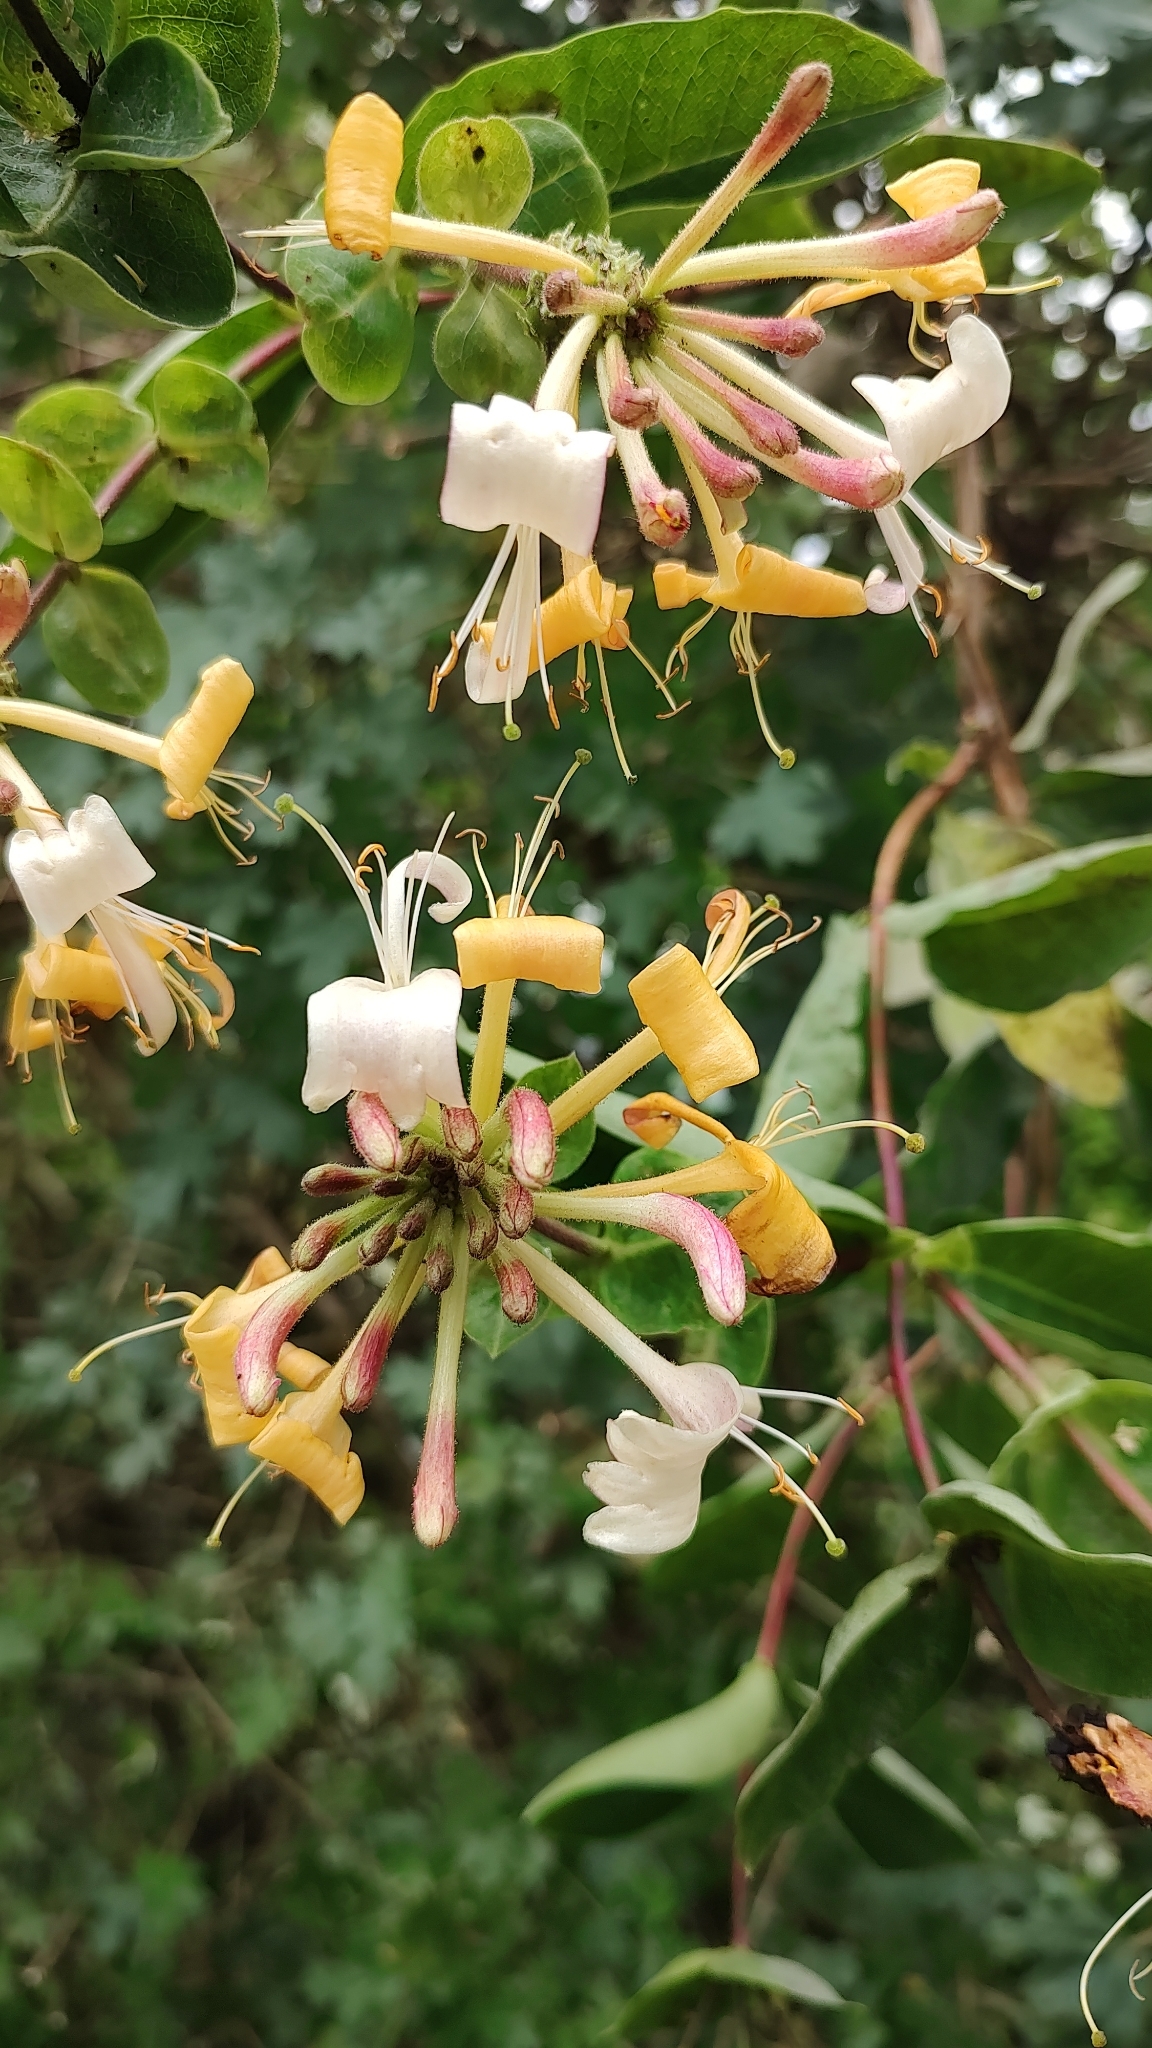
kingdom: Plantae
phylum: Tracheophyta
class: Magnoliopsida
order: Dipsacales
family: Caprifoliaceae
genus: Lonicera
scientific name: Lonicera periclymenum
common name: European honeysuckle
